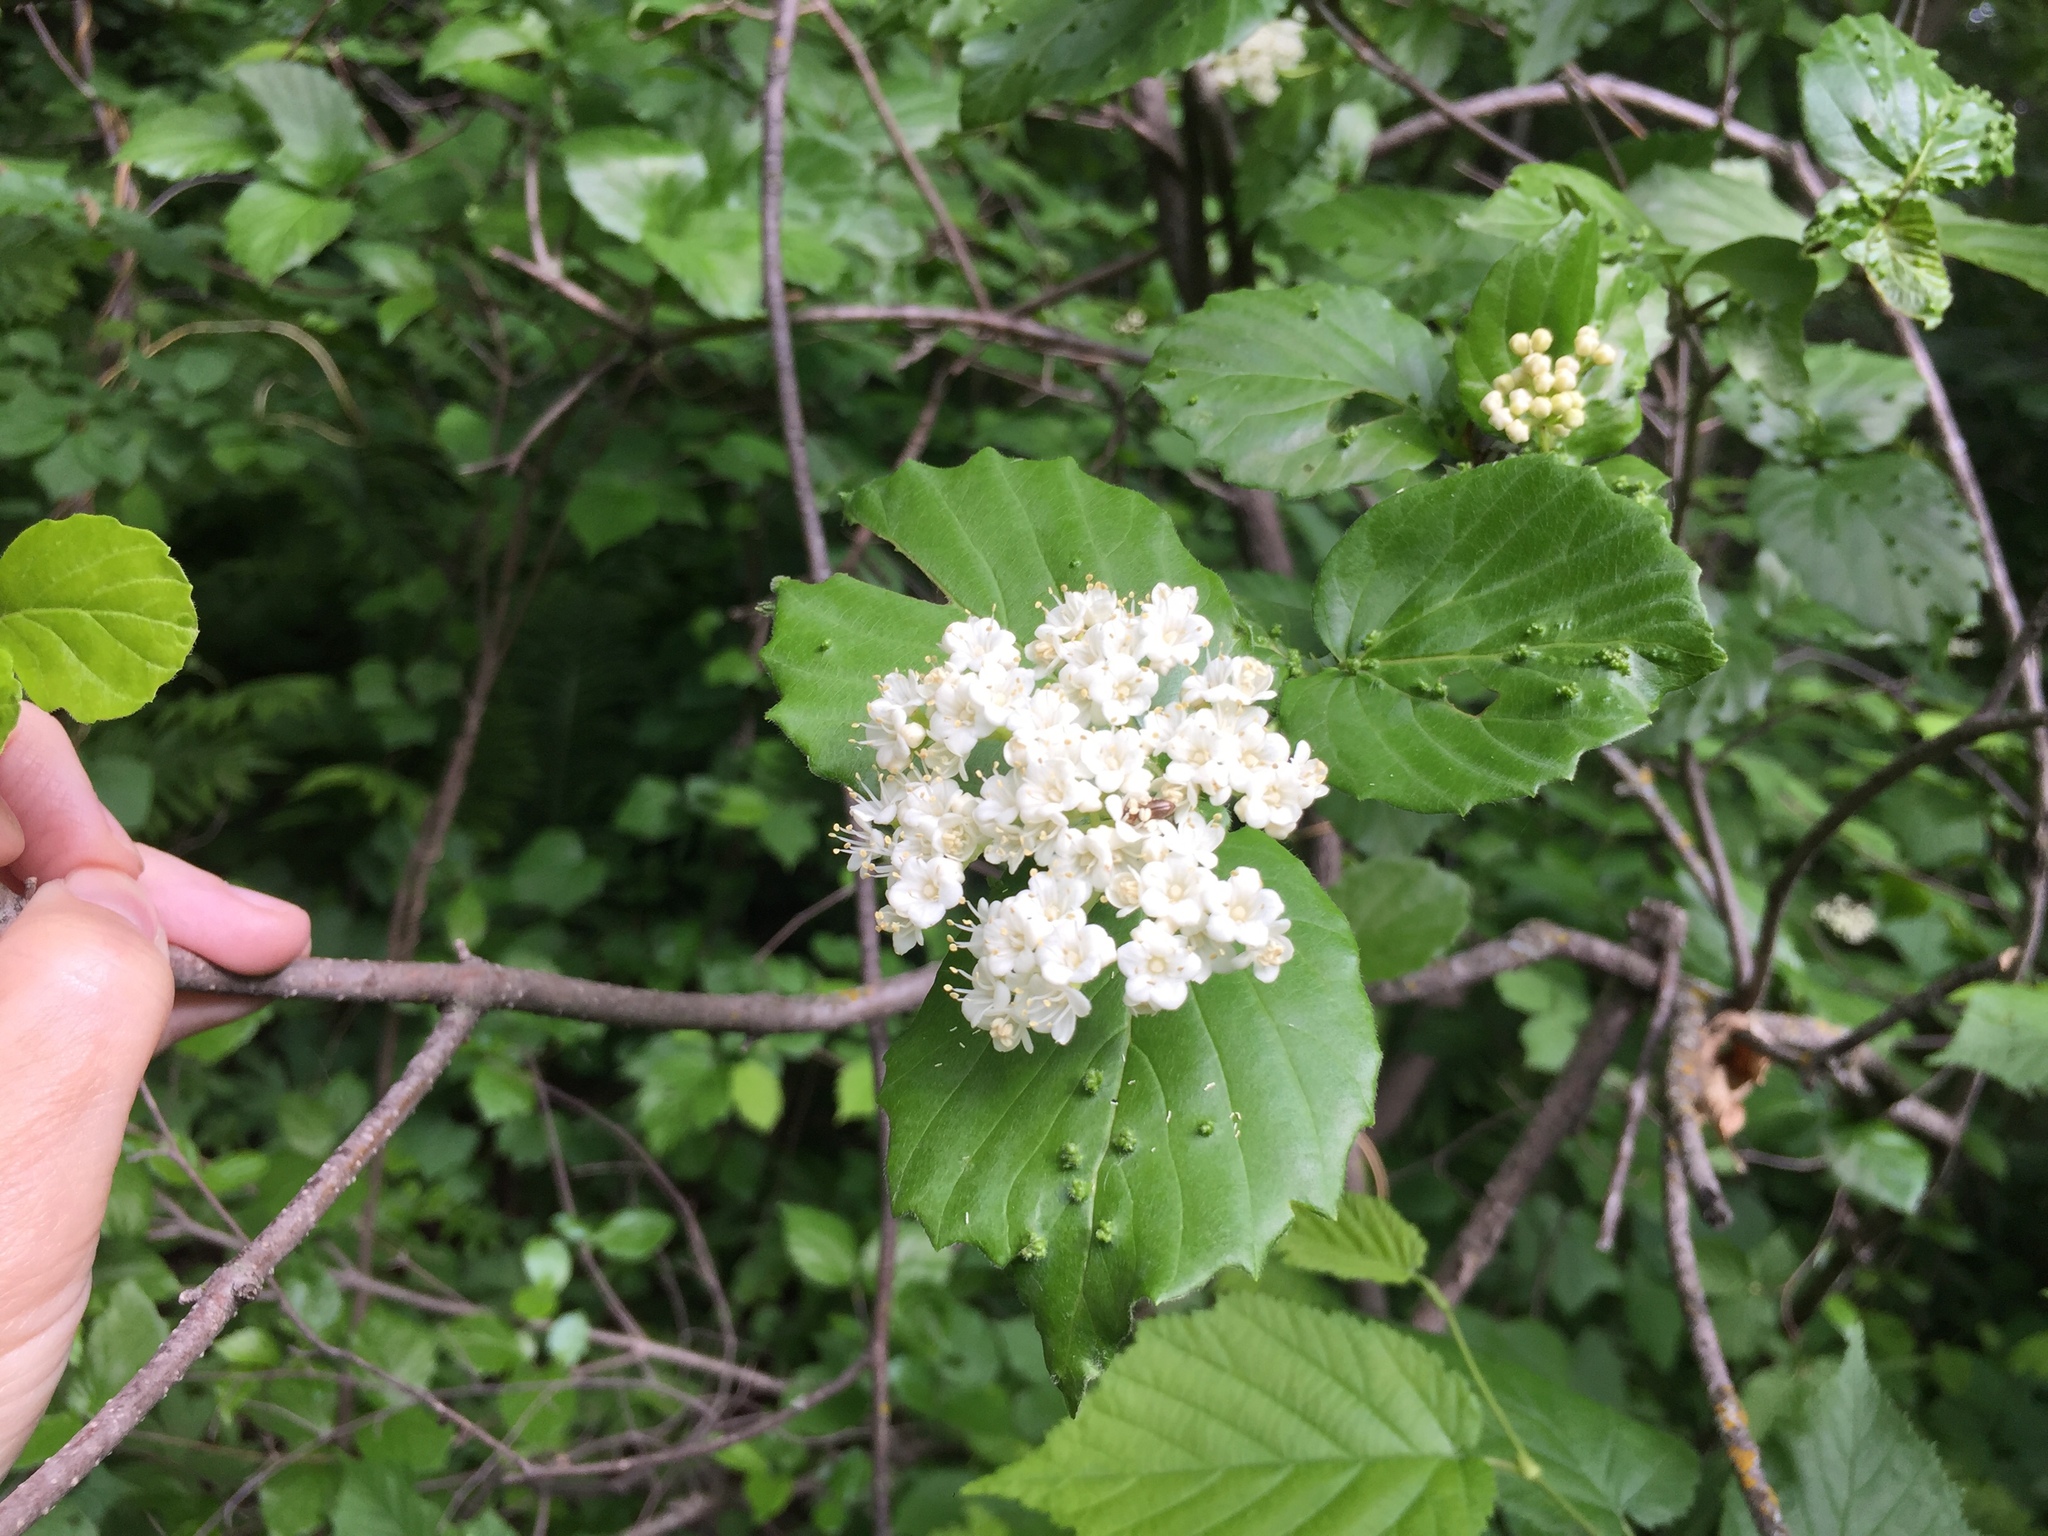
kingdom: Plantae
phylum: Tracheophyta
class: Magnoliopsida
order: Dipsacales
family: Viburnaceae
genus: Viburnum
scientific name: Viburnum rafinesqueanum
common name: Downy arrow-wood
